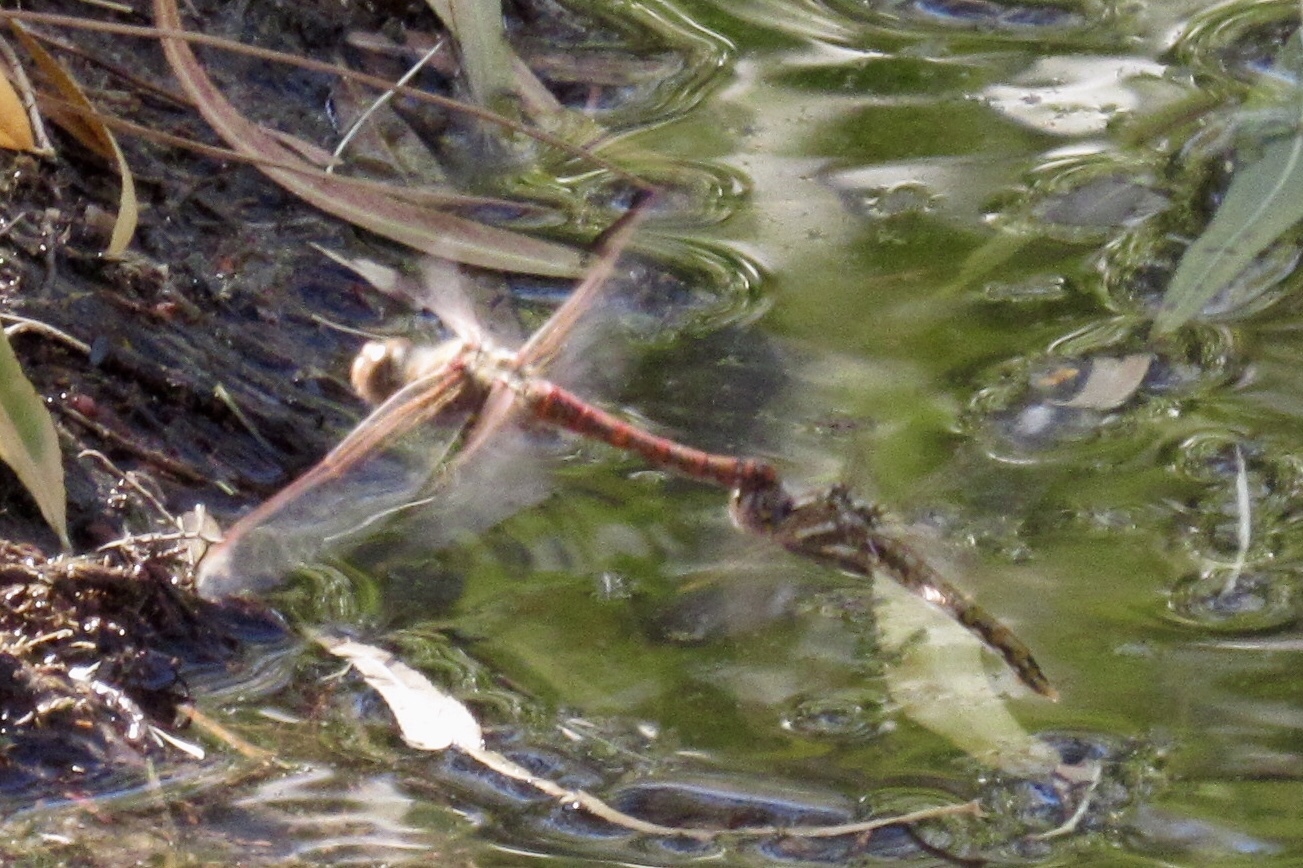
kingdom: Animalia
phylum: Arthropoda
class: Insecta
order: Odonata
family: Libellulidae
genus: Sympetrum
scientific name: Sympetrum corruptum
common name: Variegated meadowhawk
